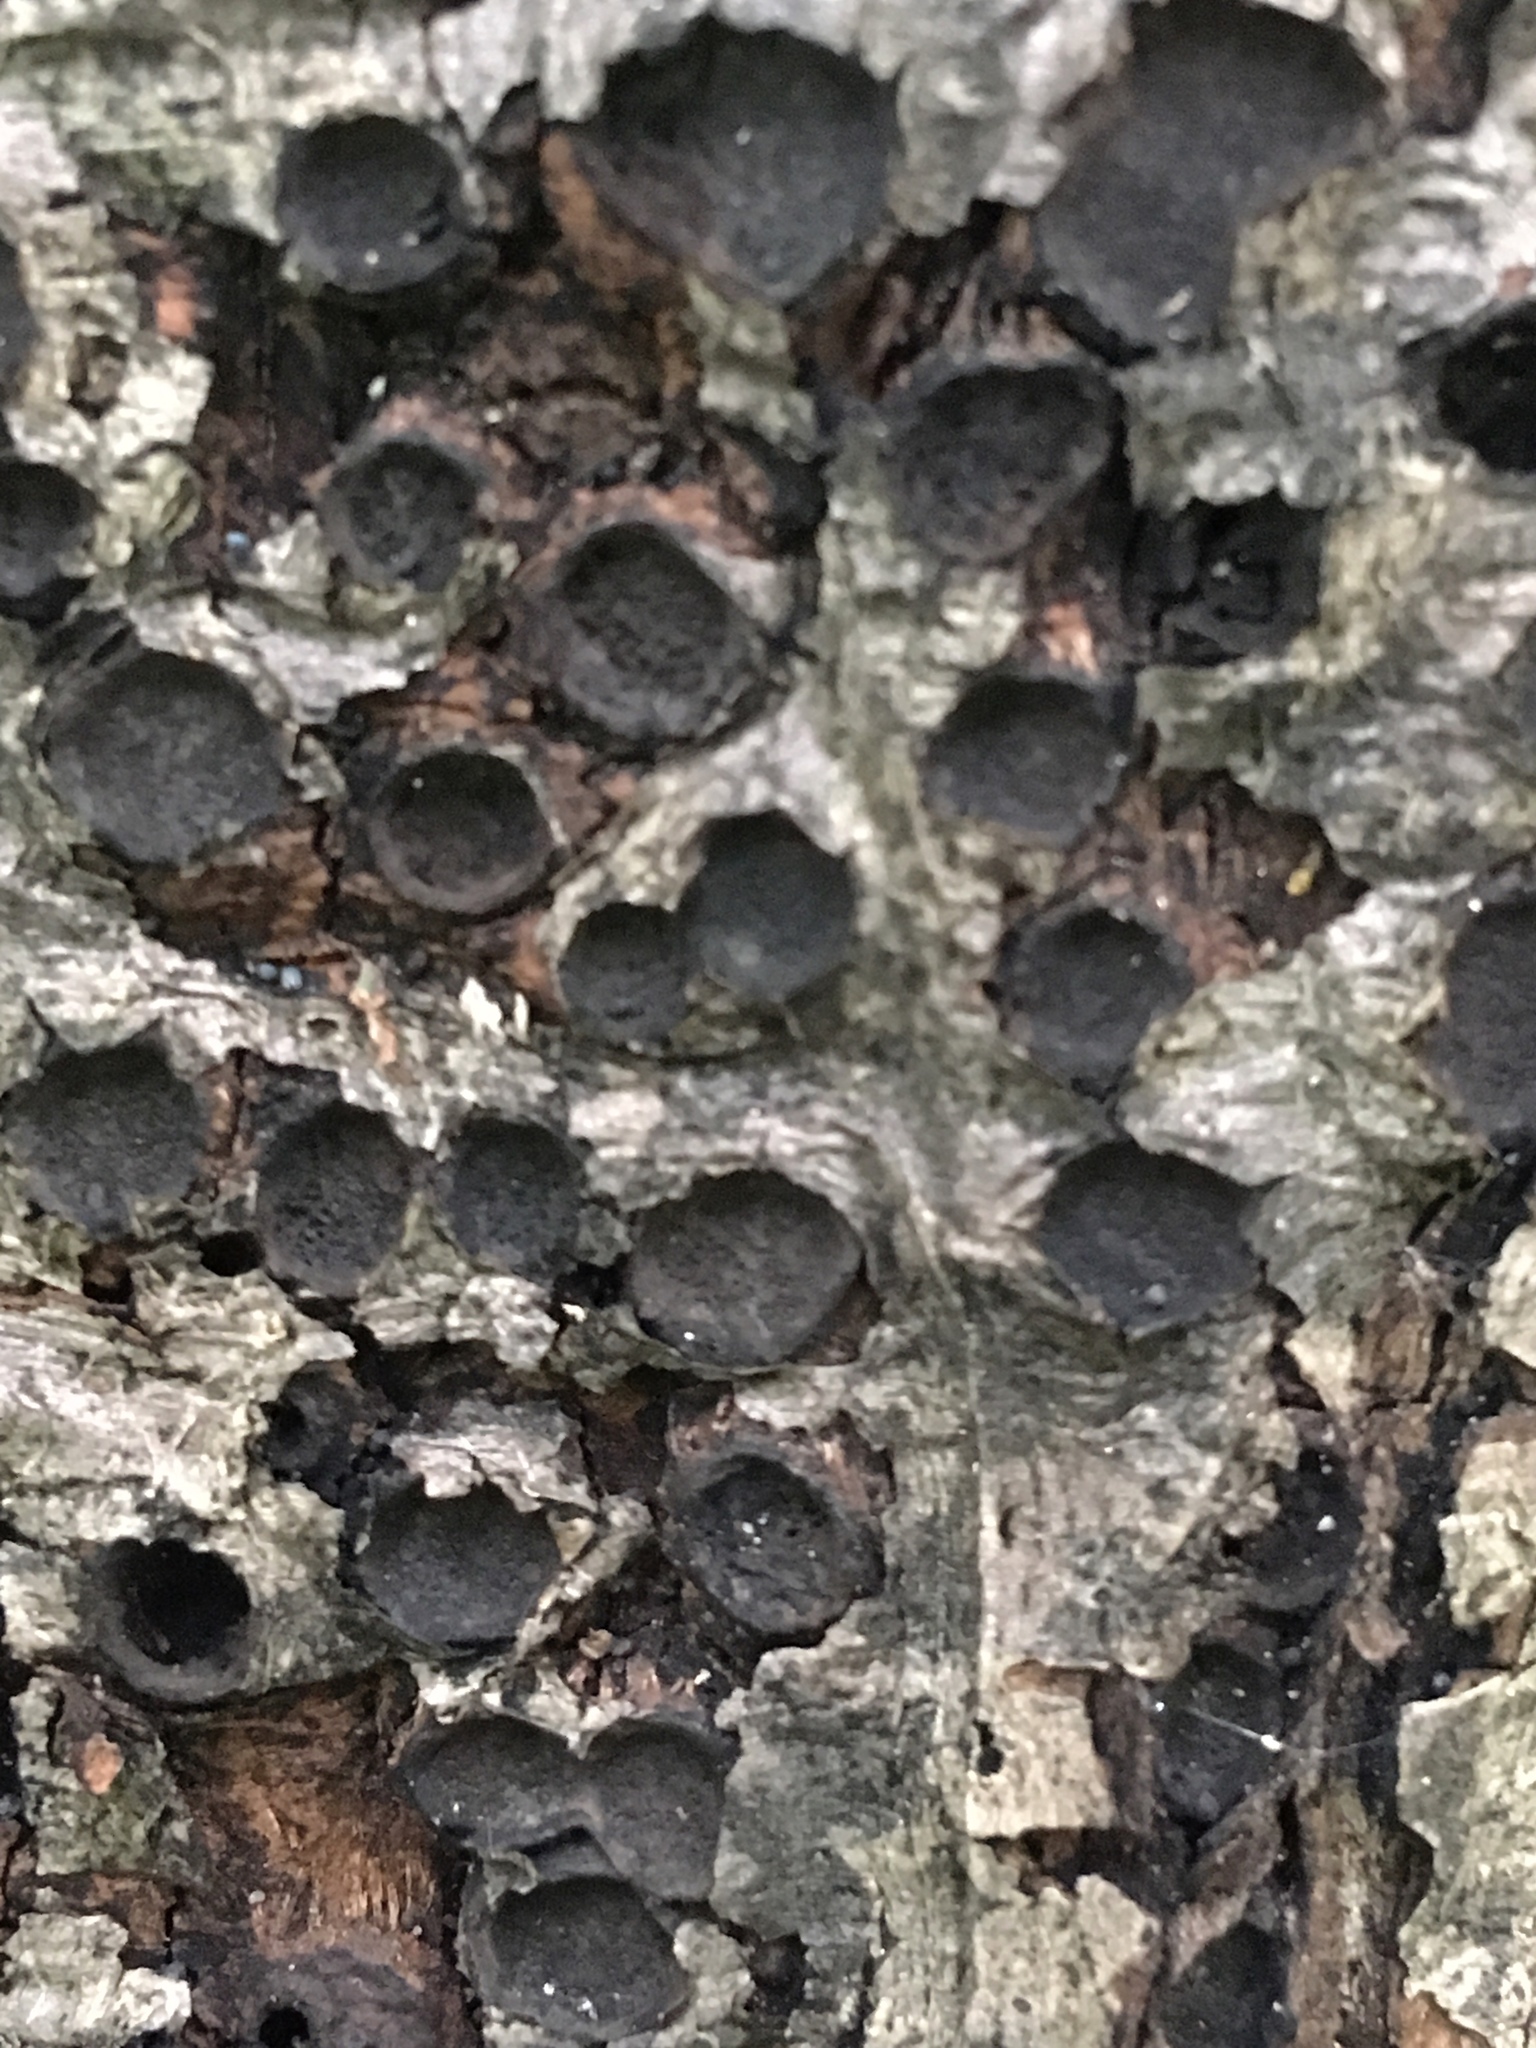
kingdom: Fungi
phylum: Ascomycota
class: Sordariomycetes
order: Xylariales
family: Graphostromataceae
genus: Biscogniauxia
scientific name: Biscogniauxia marginata
